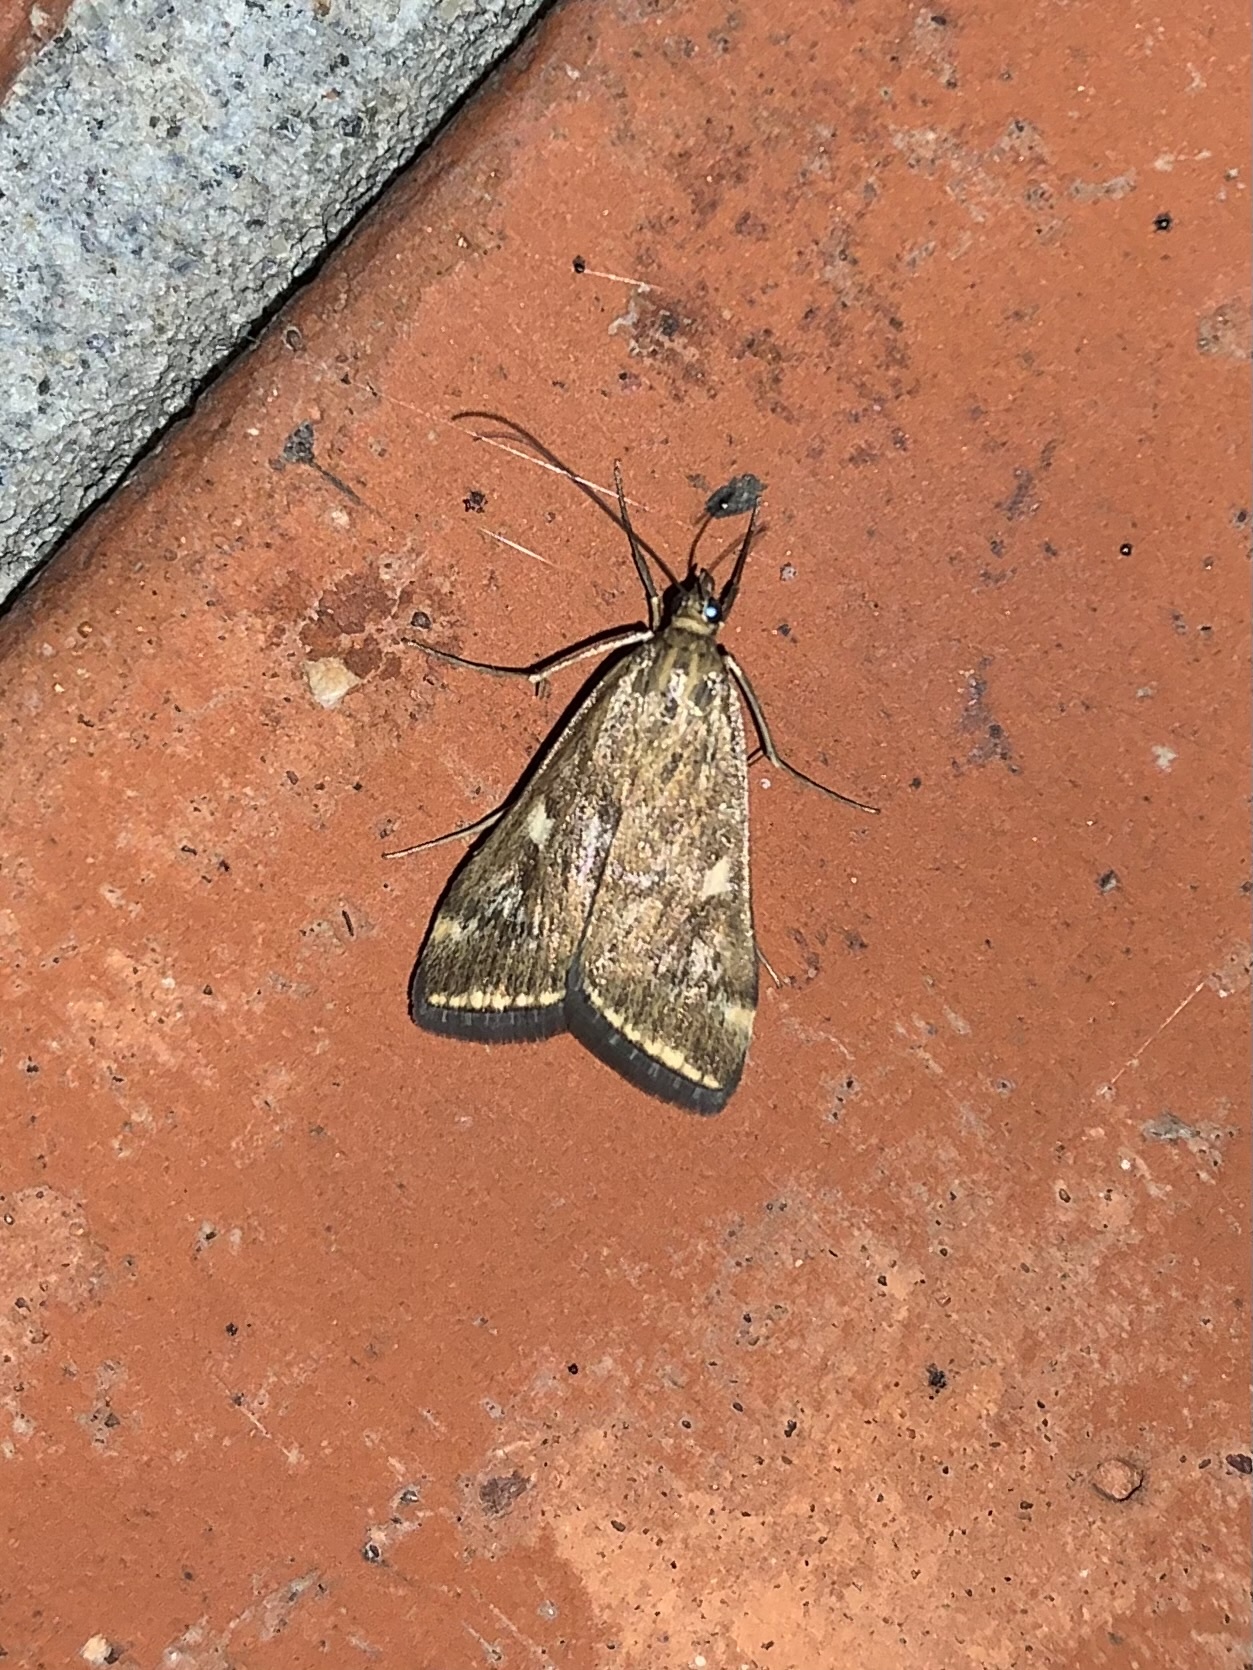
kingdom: Animalia
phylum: Arthropoda
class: Insecta
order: Lepidoptera
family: Crambidae
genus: Loxostege
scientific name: Loxostege sticticalis
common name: Crambid moth
